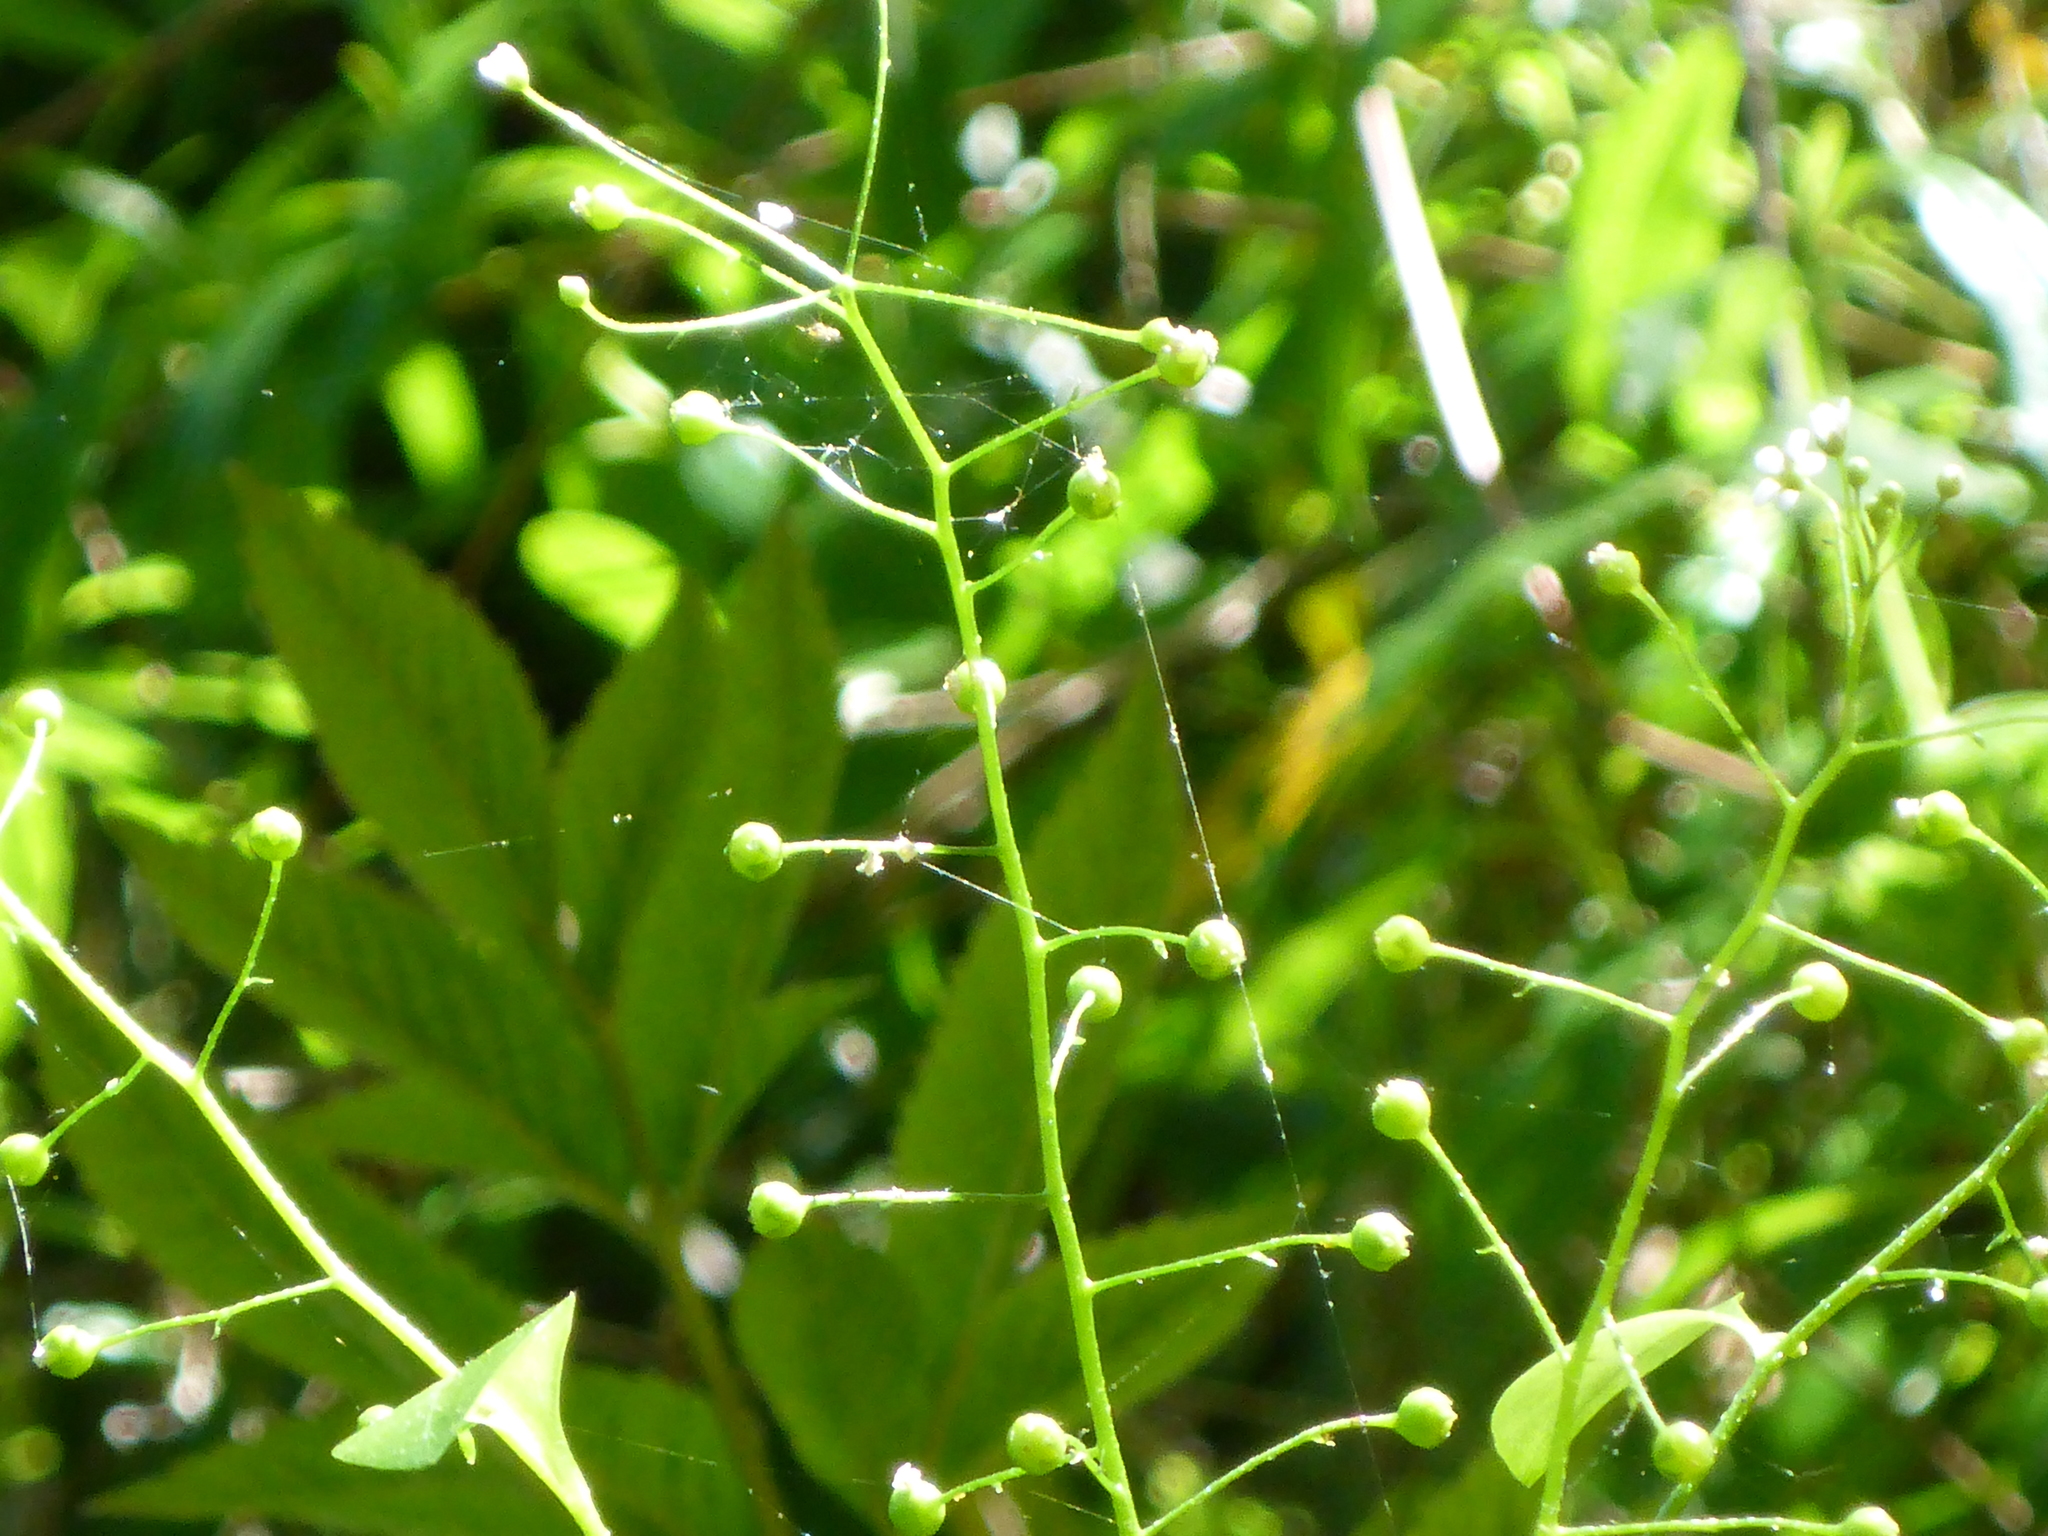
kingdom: Plantae
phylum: Tracheophyta
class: Magnoliopsida
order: Ericales
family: Primulaceae
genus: Samolus
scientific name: Samolus parviflorus
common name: False water pimpernel
